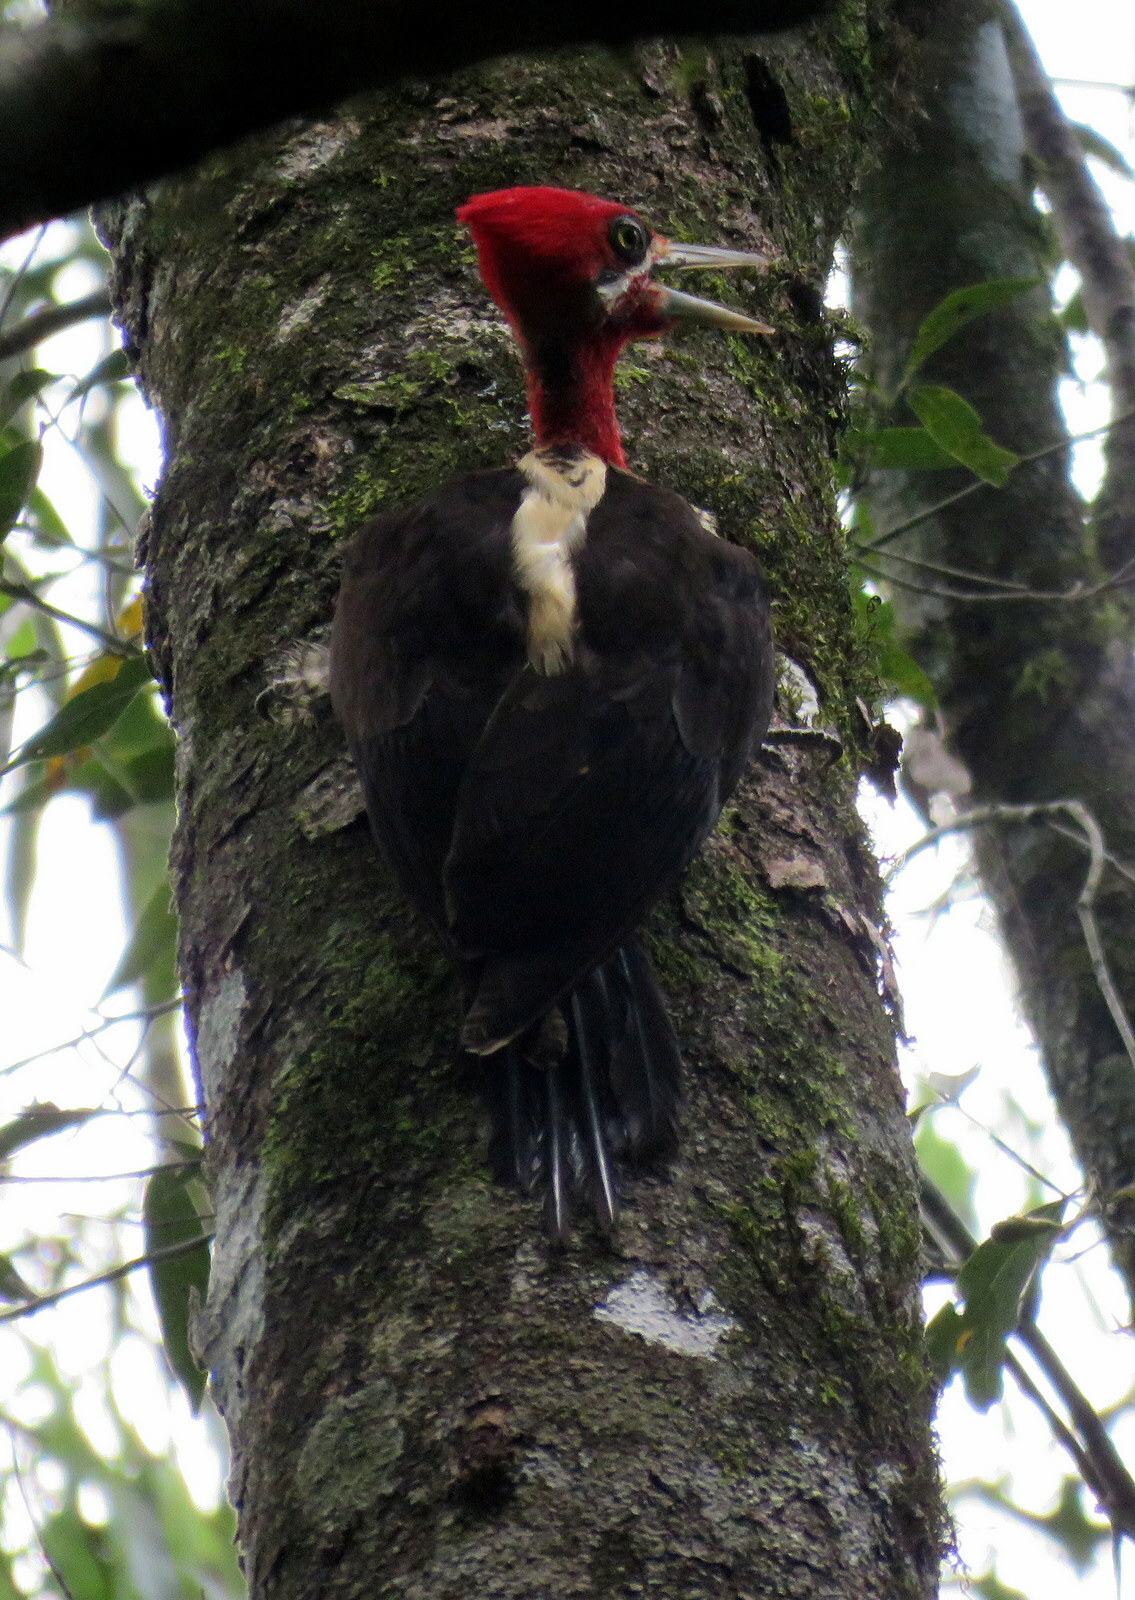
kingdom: Animalia
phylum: Chordata
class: Aves
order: Piciformes
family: Picidae
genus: Campephilus
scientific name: Campephilus robustus
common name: Robust woodpecker
